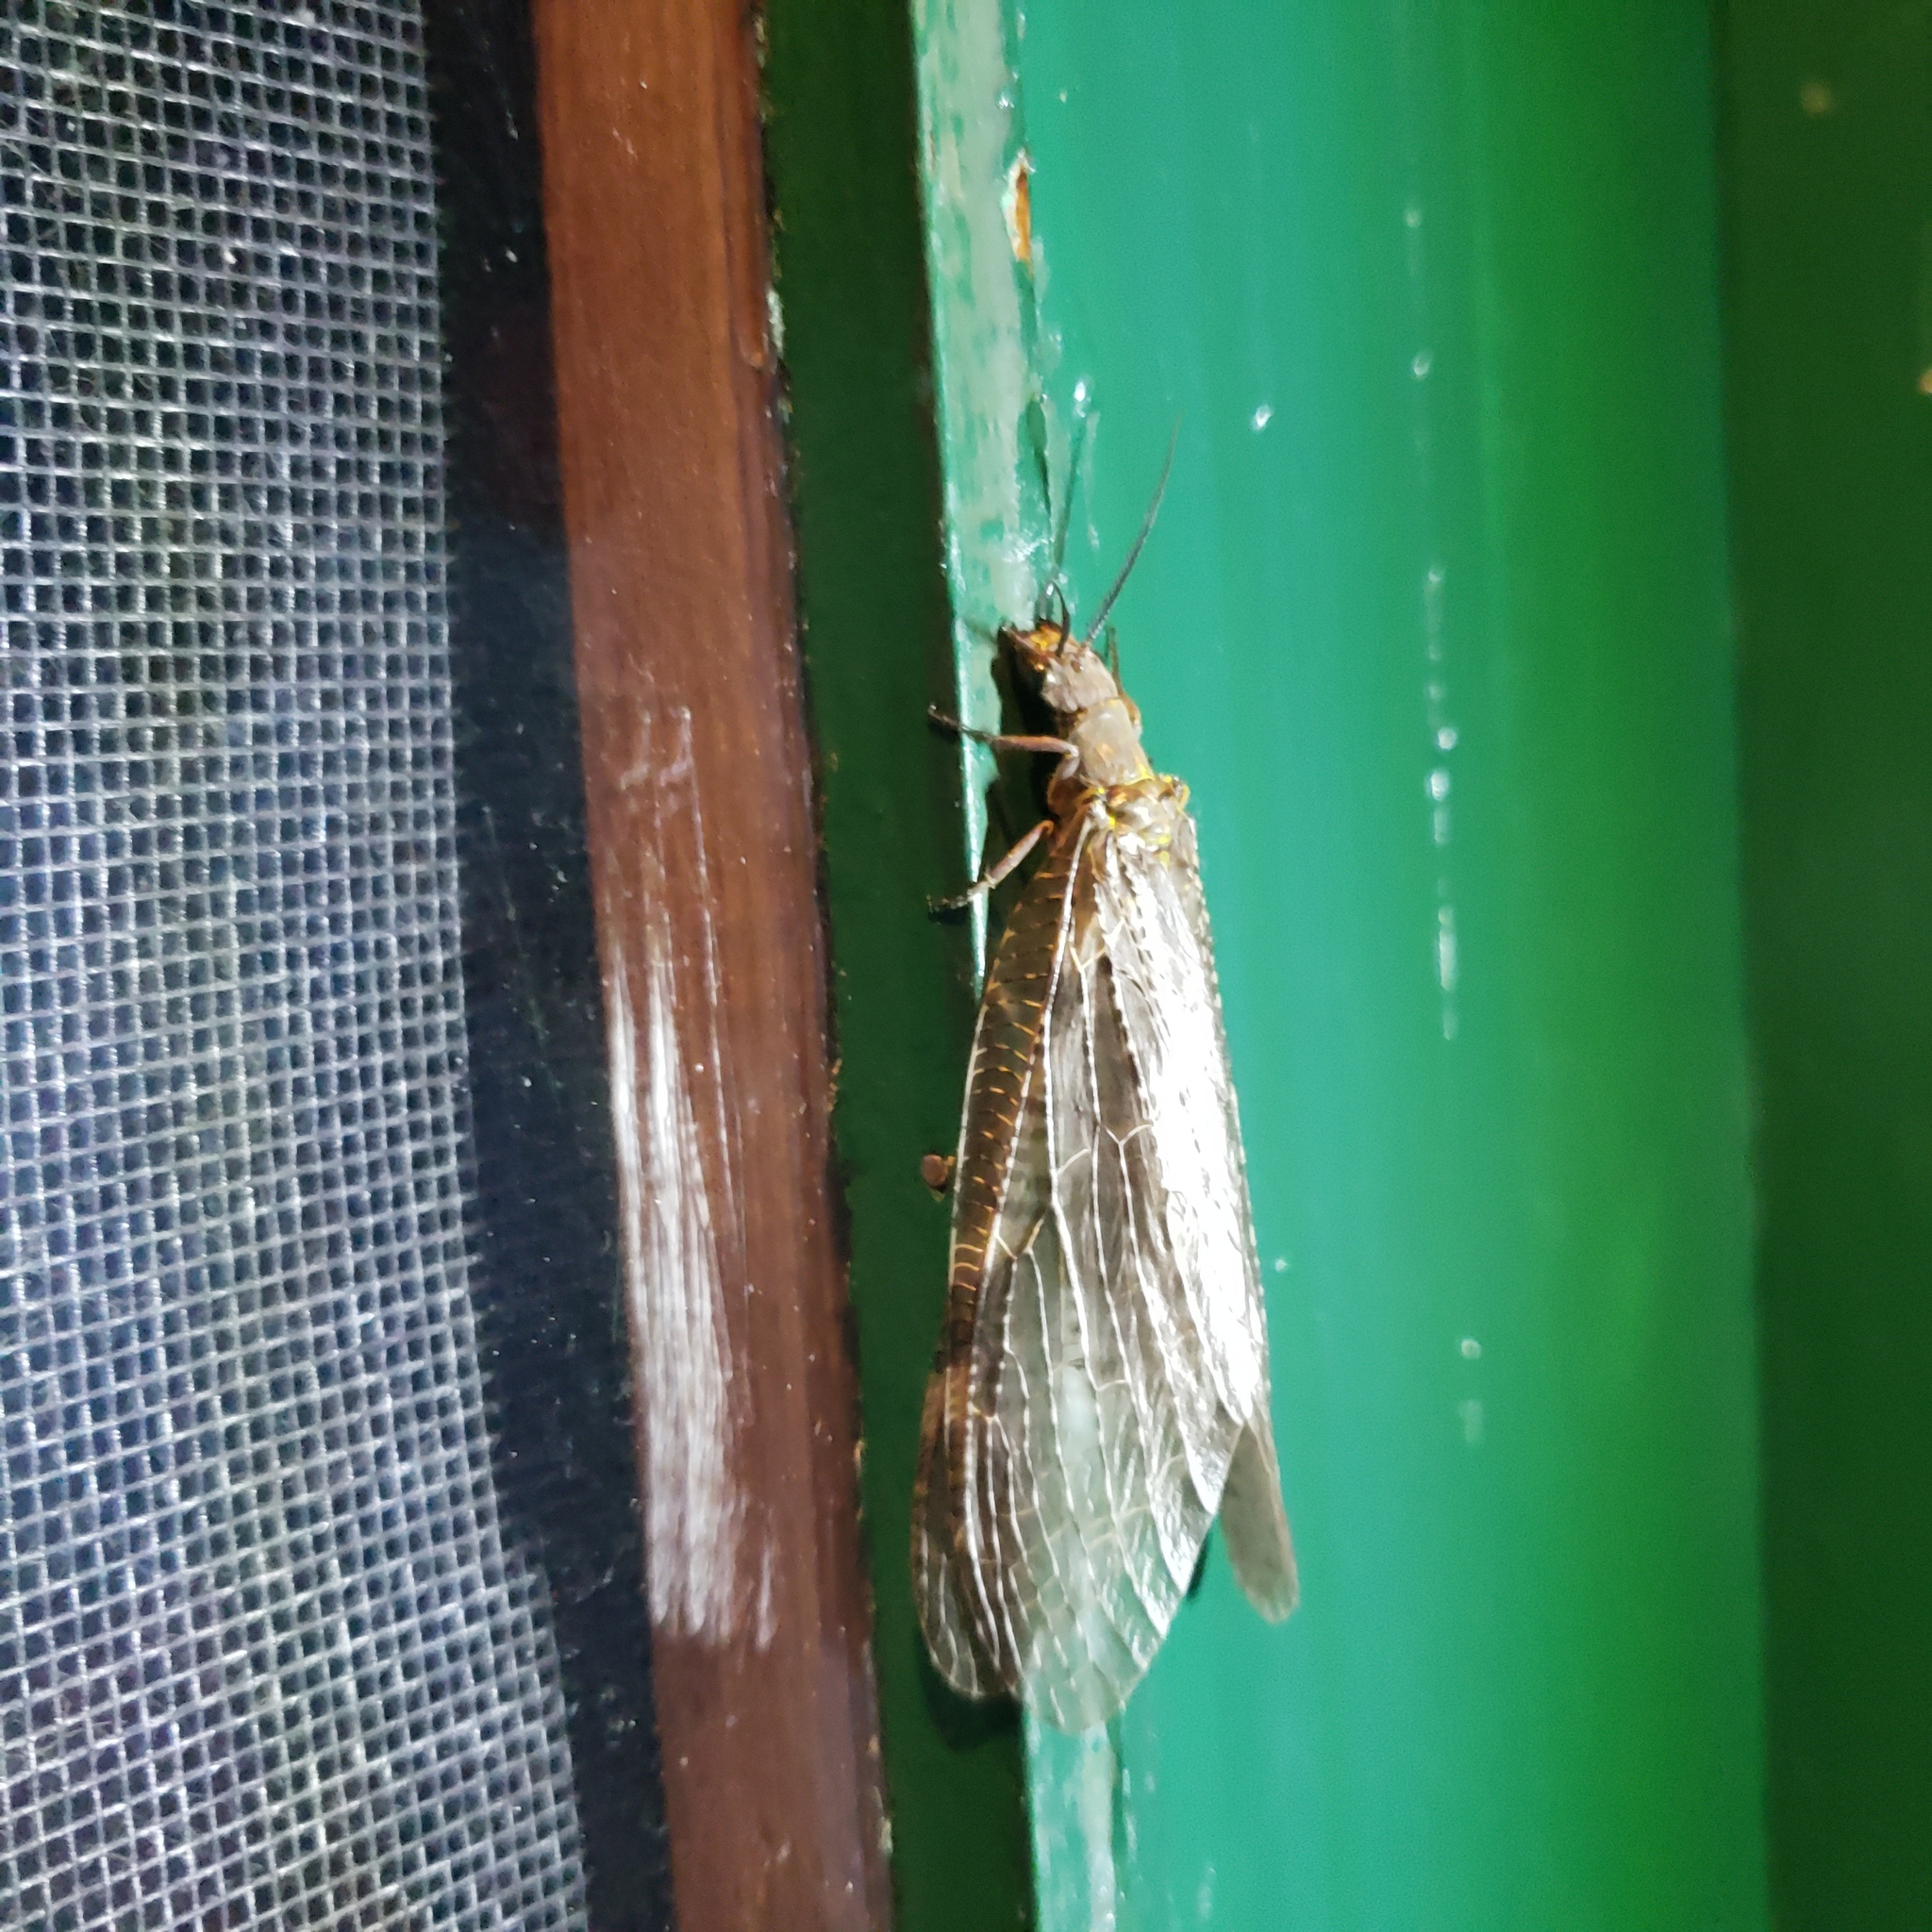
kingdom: Animalia
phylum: Arthropoda
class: Insecta
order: Megaloptera
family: Corydalidae
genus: Chauliodes
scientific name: Chauliodes pectinicornis
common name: Summer fishfly
